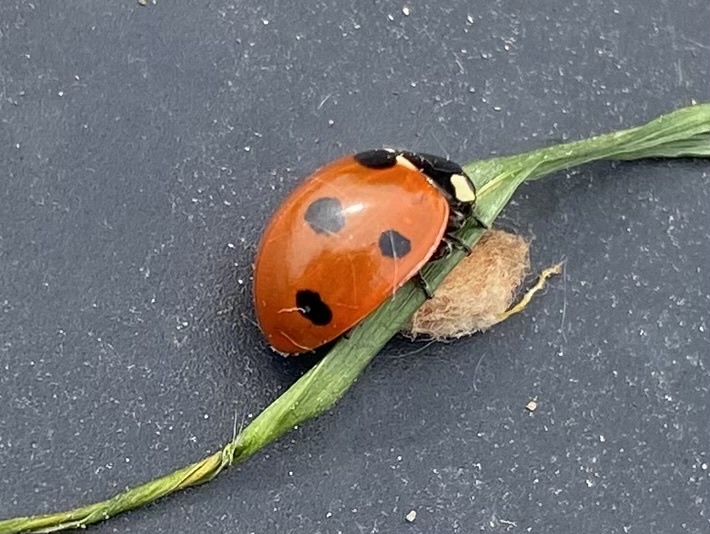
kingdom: Animalia
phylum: Arthropoda
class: Insecta
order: Hymenoptera
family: Braconidae
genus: Dinocampus
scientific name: Dinocampus coccinellae
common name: Braconid wasp
